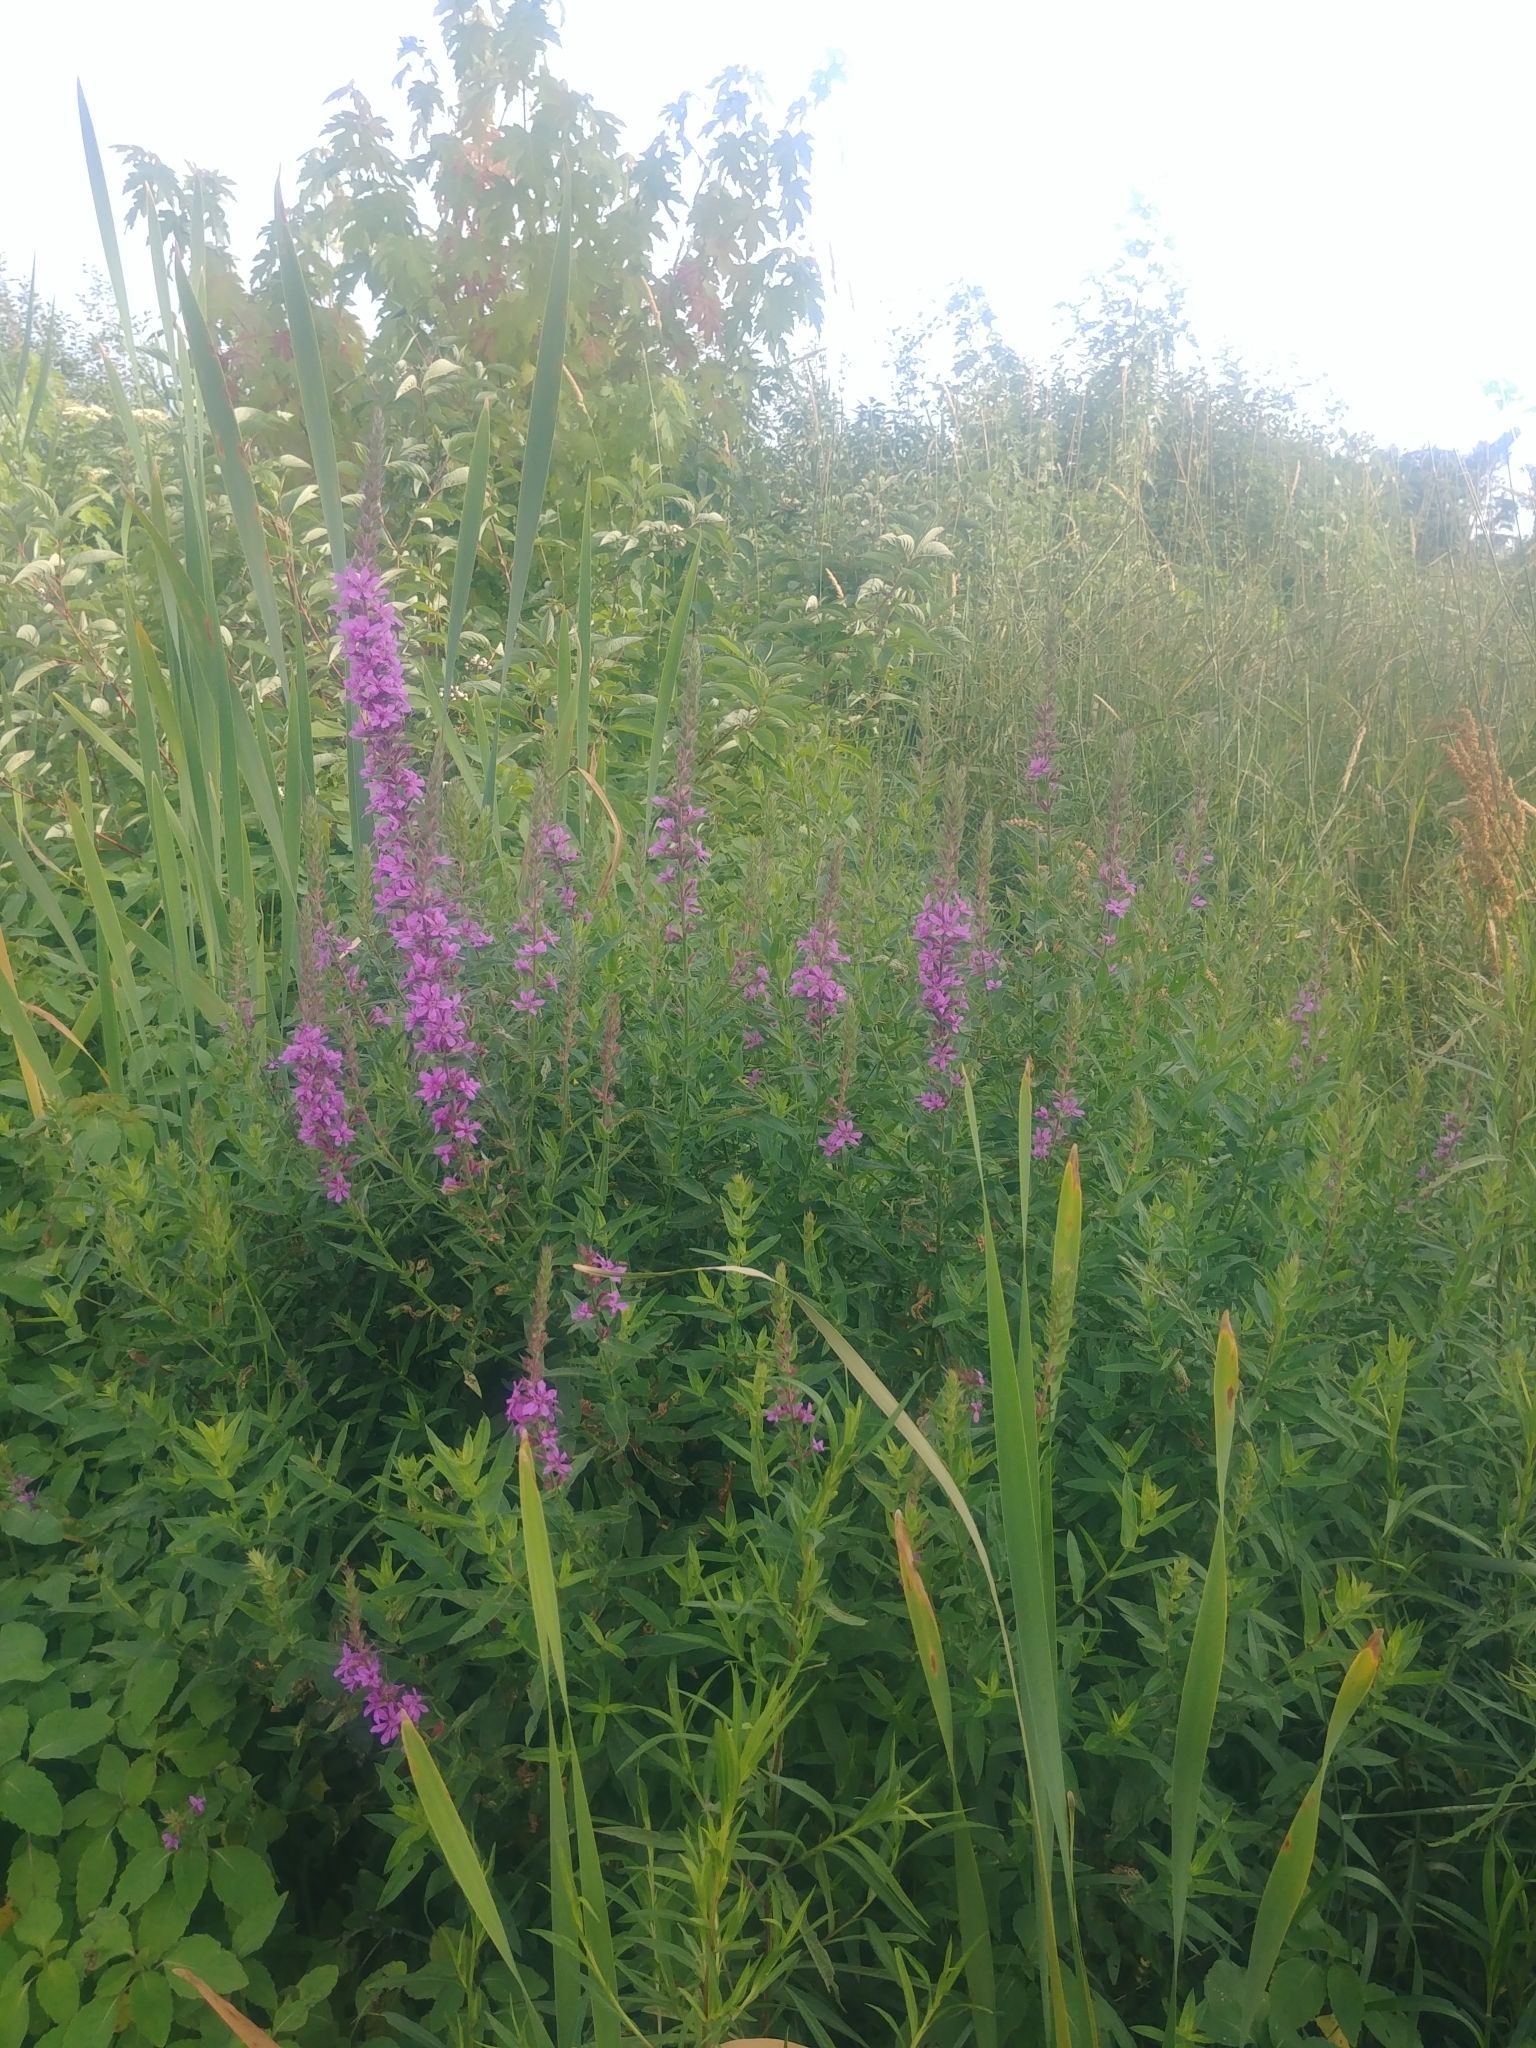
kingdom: Plantae
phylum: Tracheophyta
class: Magnoliopsida
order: Myrtales
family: Lythraceae
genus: Lythrum
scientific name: Lythrum salicaria
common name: Purple loosestrife
